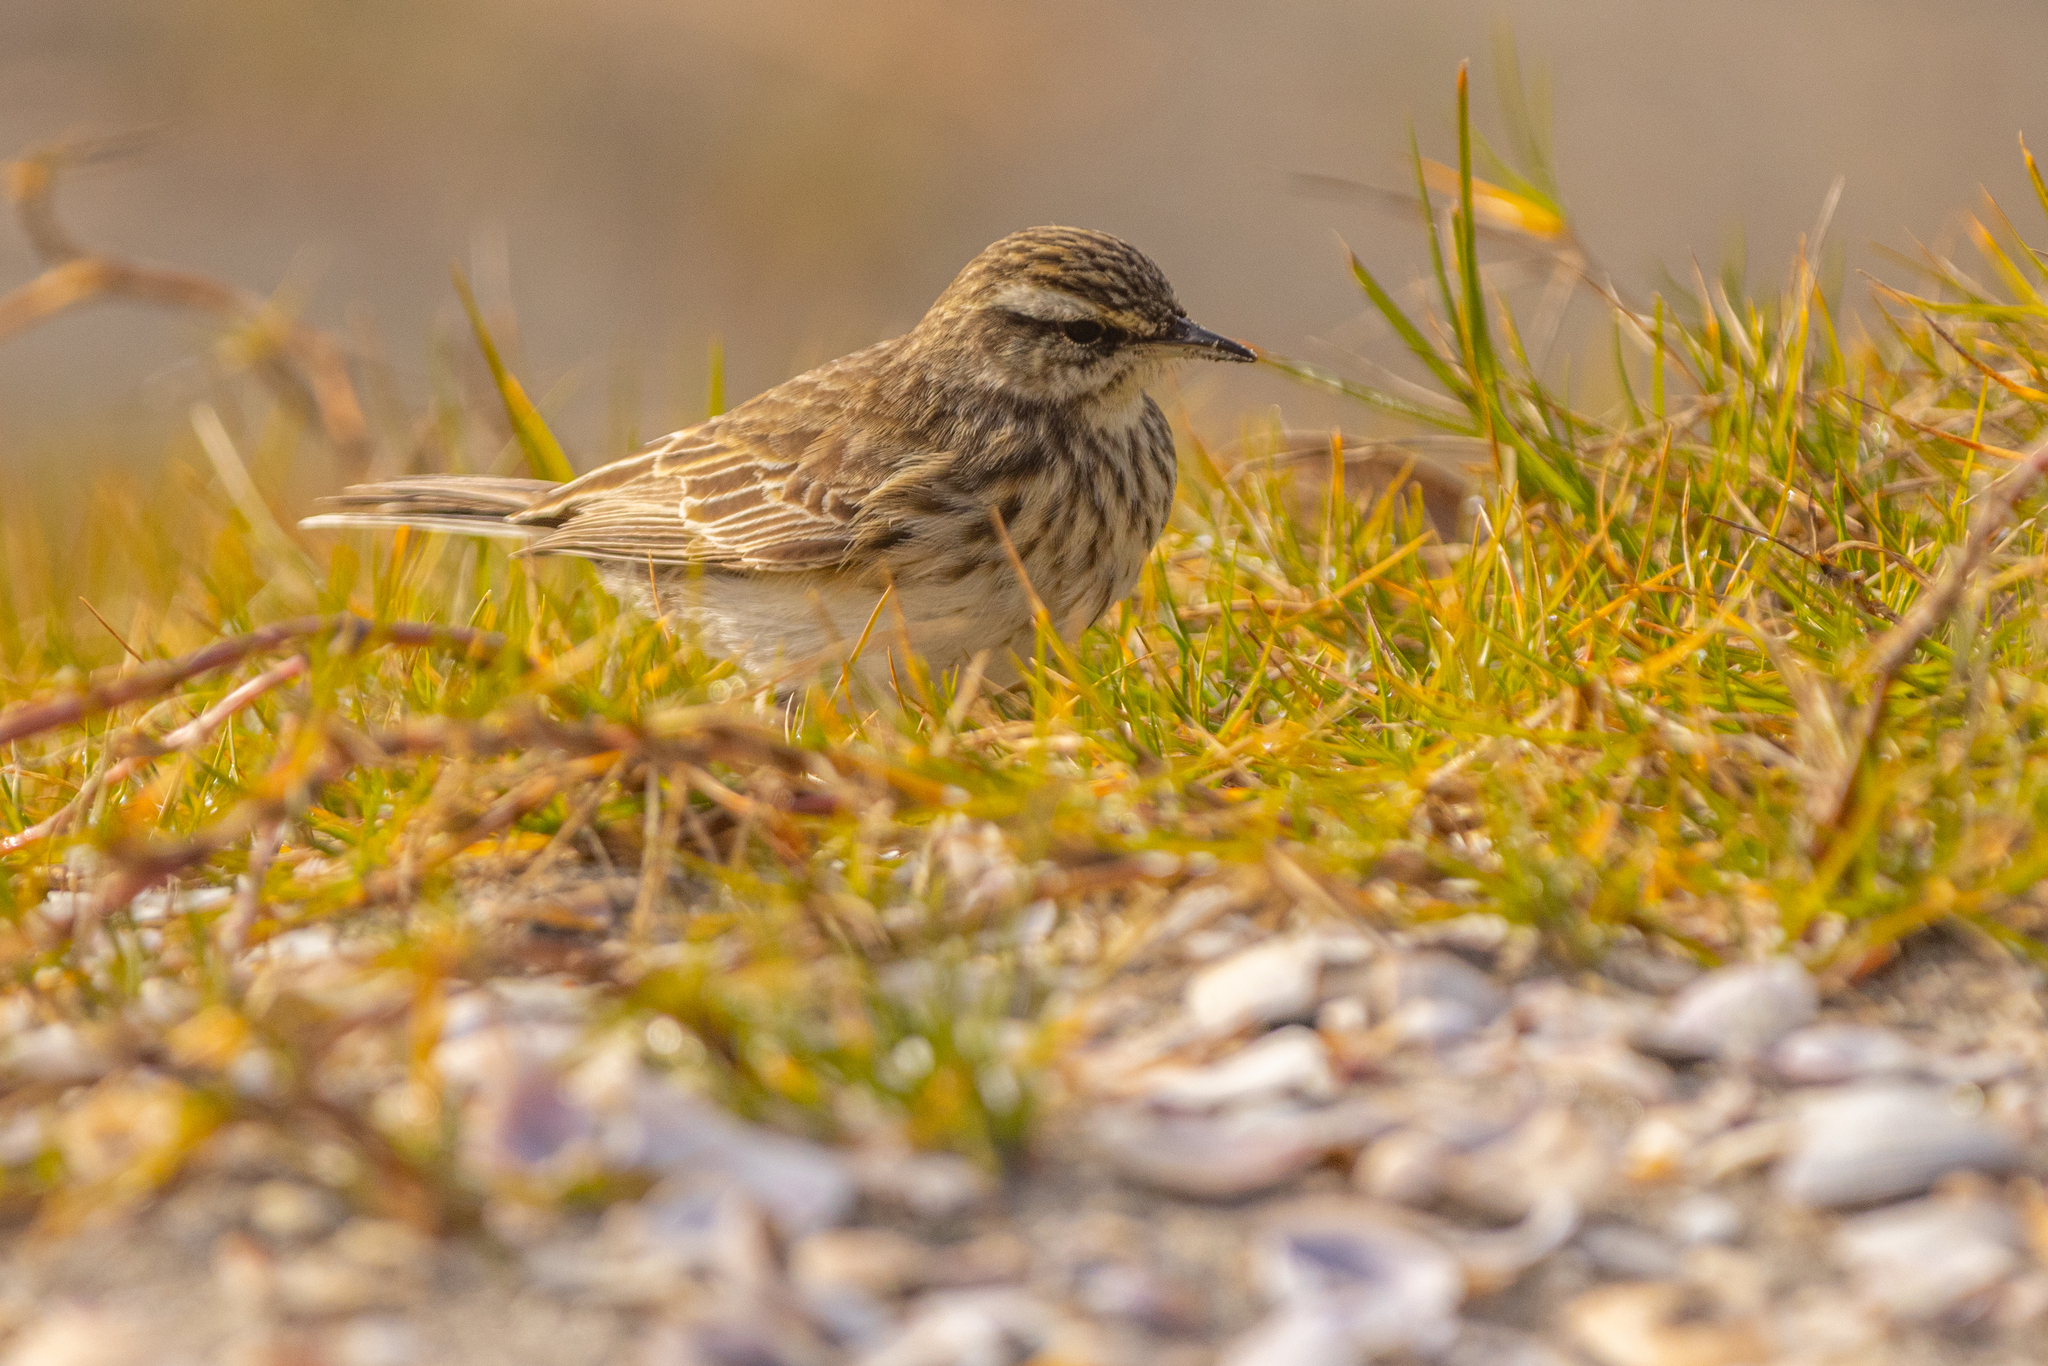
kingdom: Animalia
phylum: Chordata
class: Aves
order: Passeriformes
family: Motacillidae
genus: Anthus
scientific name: Anthus novaeseelandiae
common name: New zealand pipit
